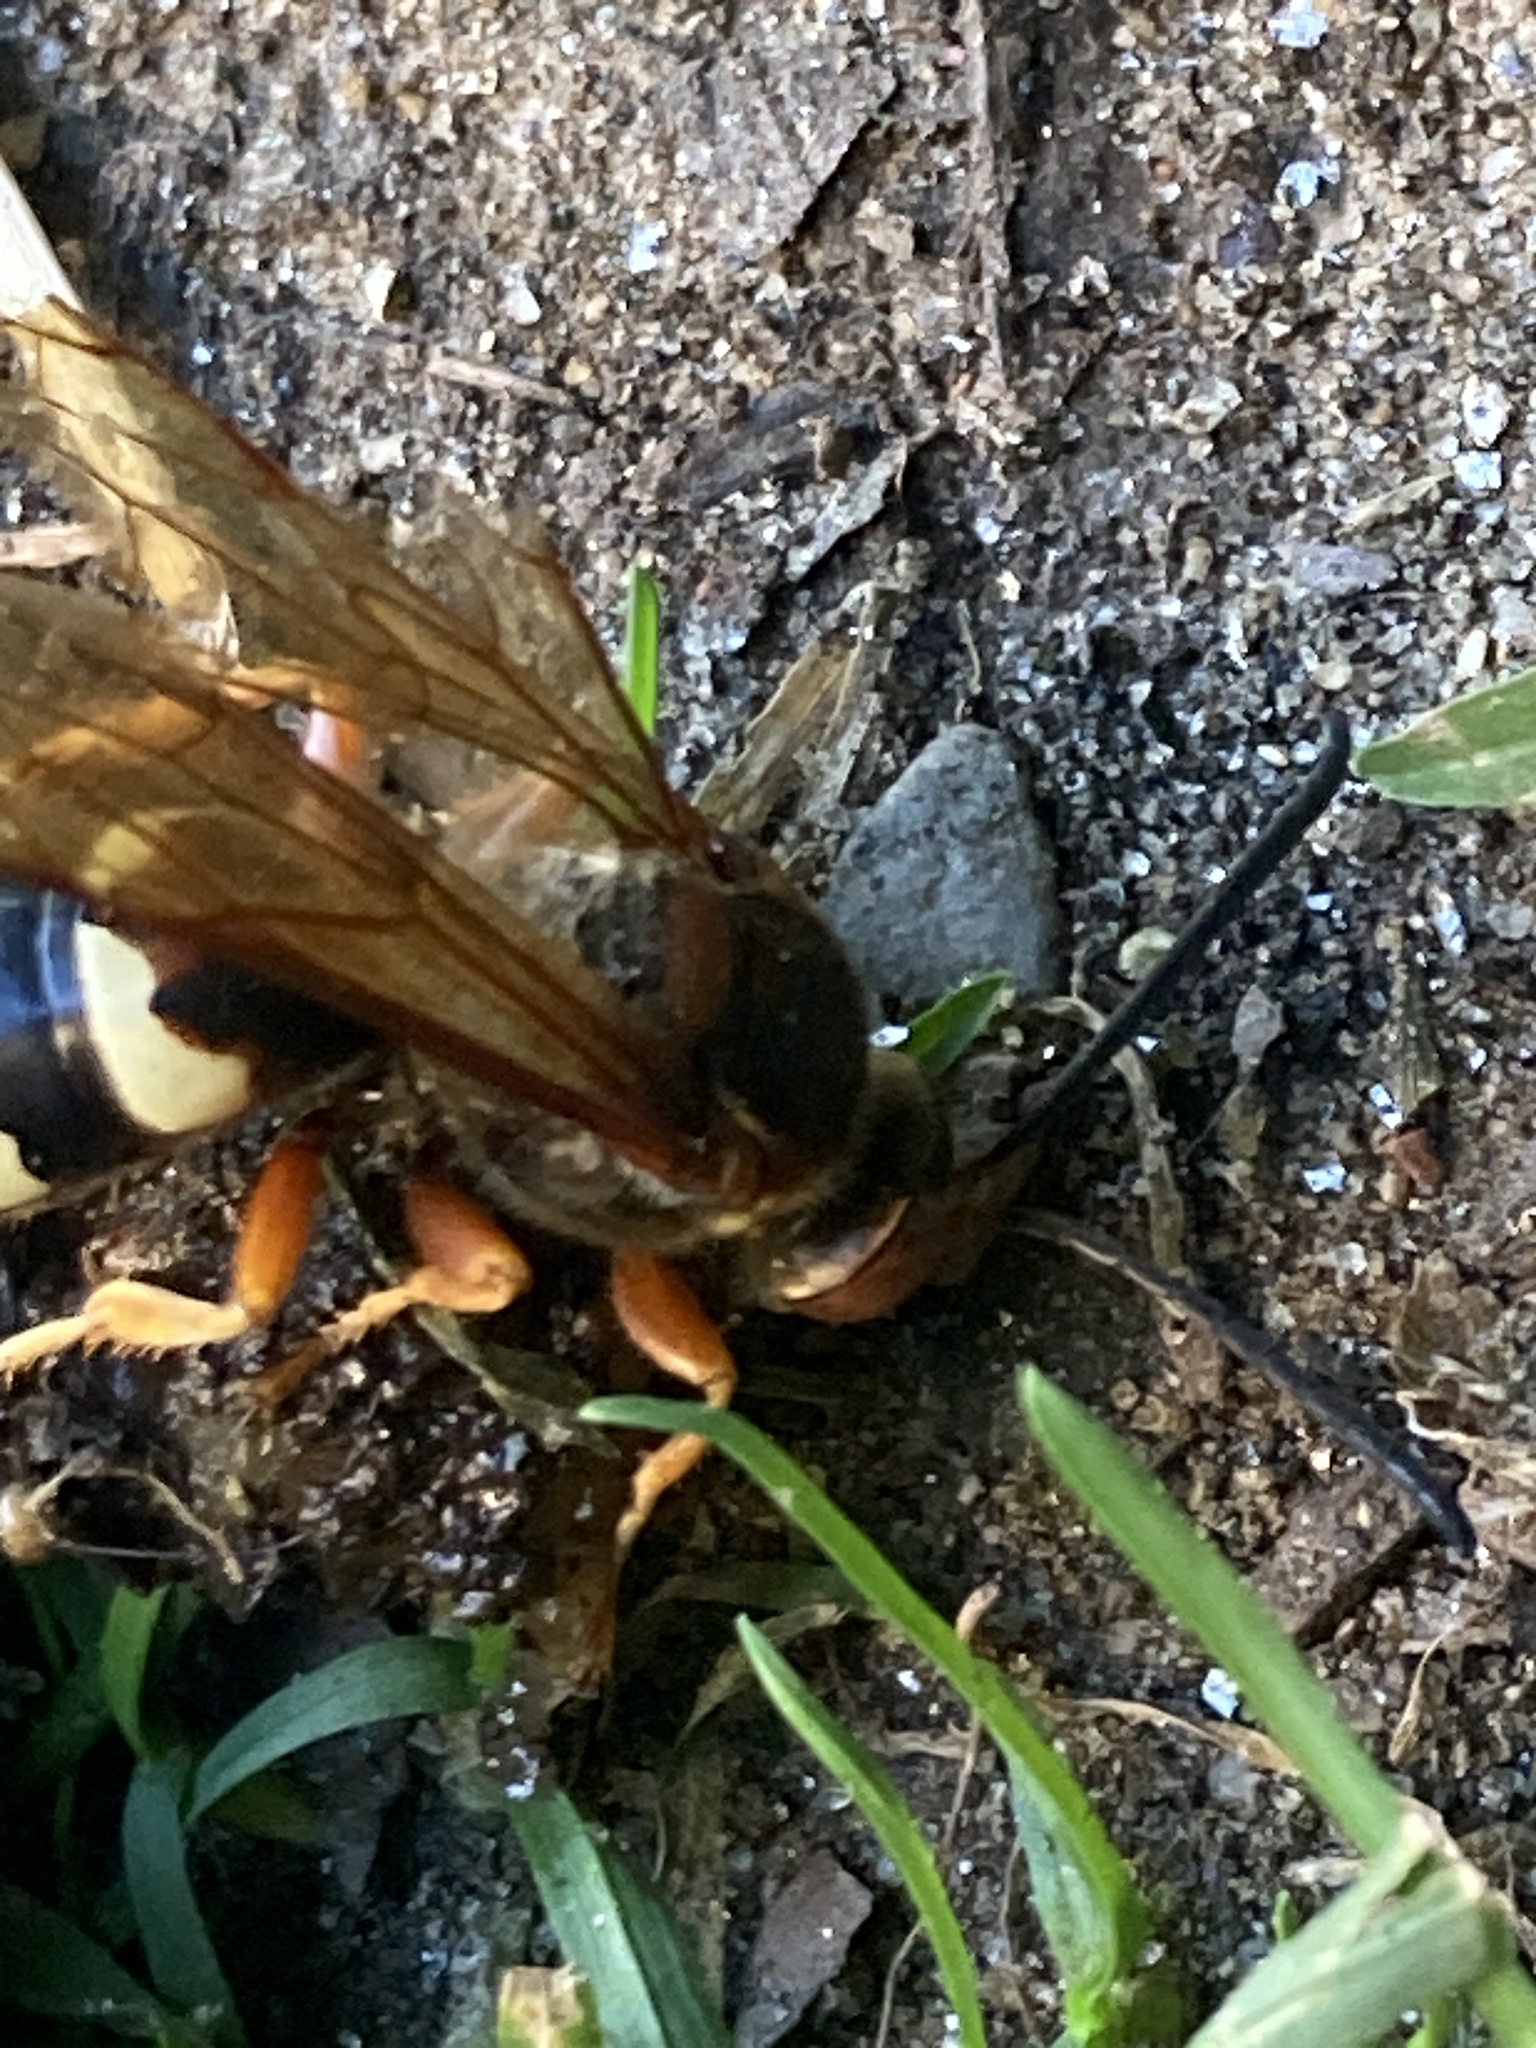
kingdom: Animalia
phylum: Arthropoda
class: Insecta
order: Hymenoptera
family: Crabronidae
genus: Sphecius
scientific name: Sphecius speciosus
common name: Cicada killer
